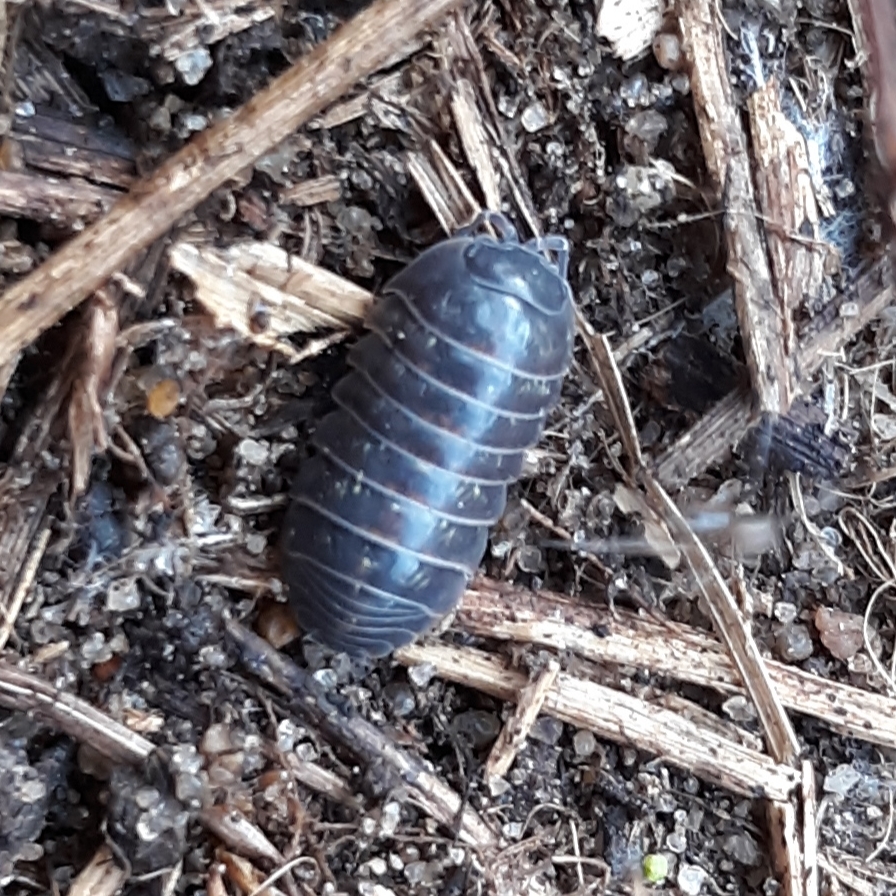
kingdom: Animalia
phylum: Arthropoda
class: Malacostraca
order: Isopoda
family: Armadillidiidae
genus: Armadillidium
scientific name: Armadillidium vulgare
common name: Common pill woodlouse
